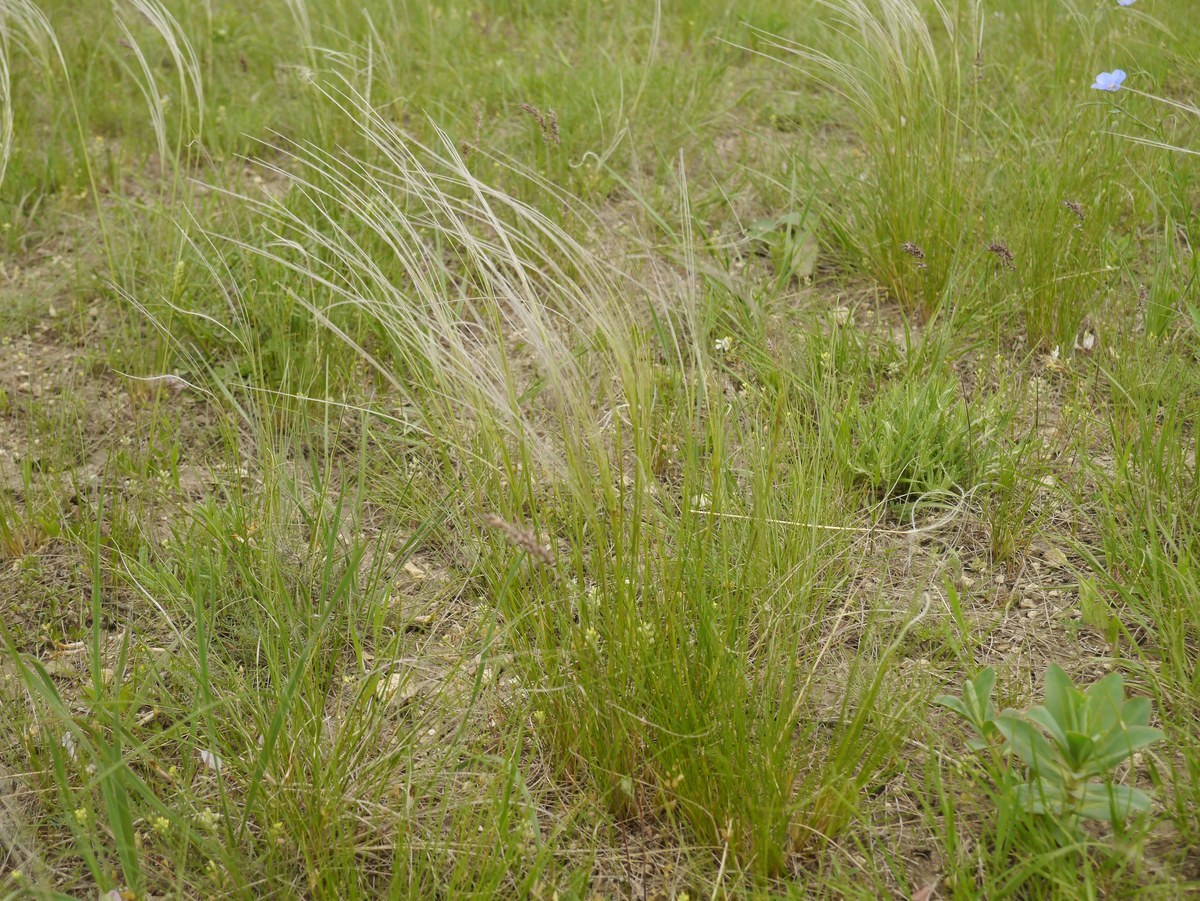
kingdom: Plantae
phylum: Tracheophyta
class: Liliopsida
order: Poales
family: Poaceae
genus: Stipa
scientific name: Stipa lessingiana
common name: Needle grass
